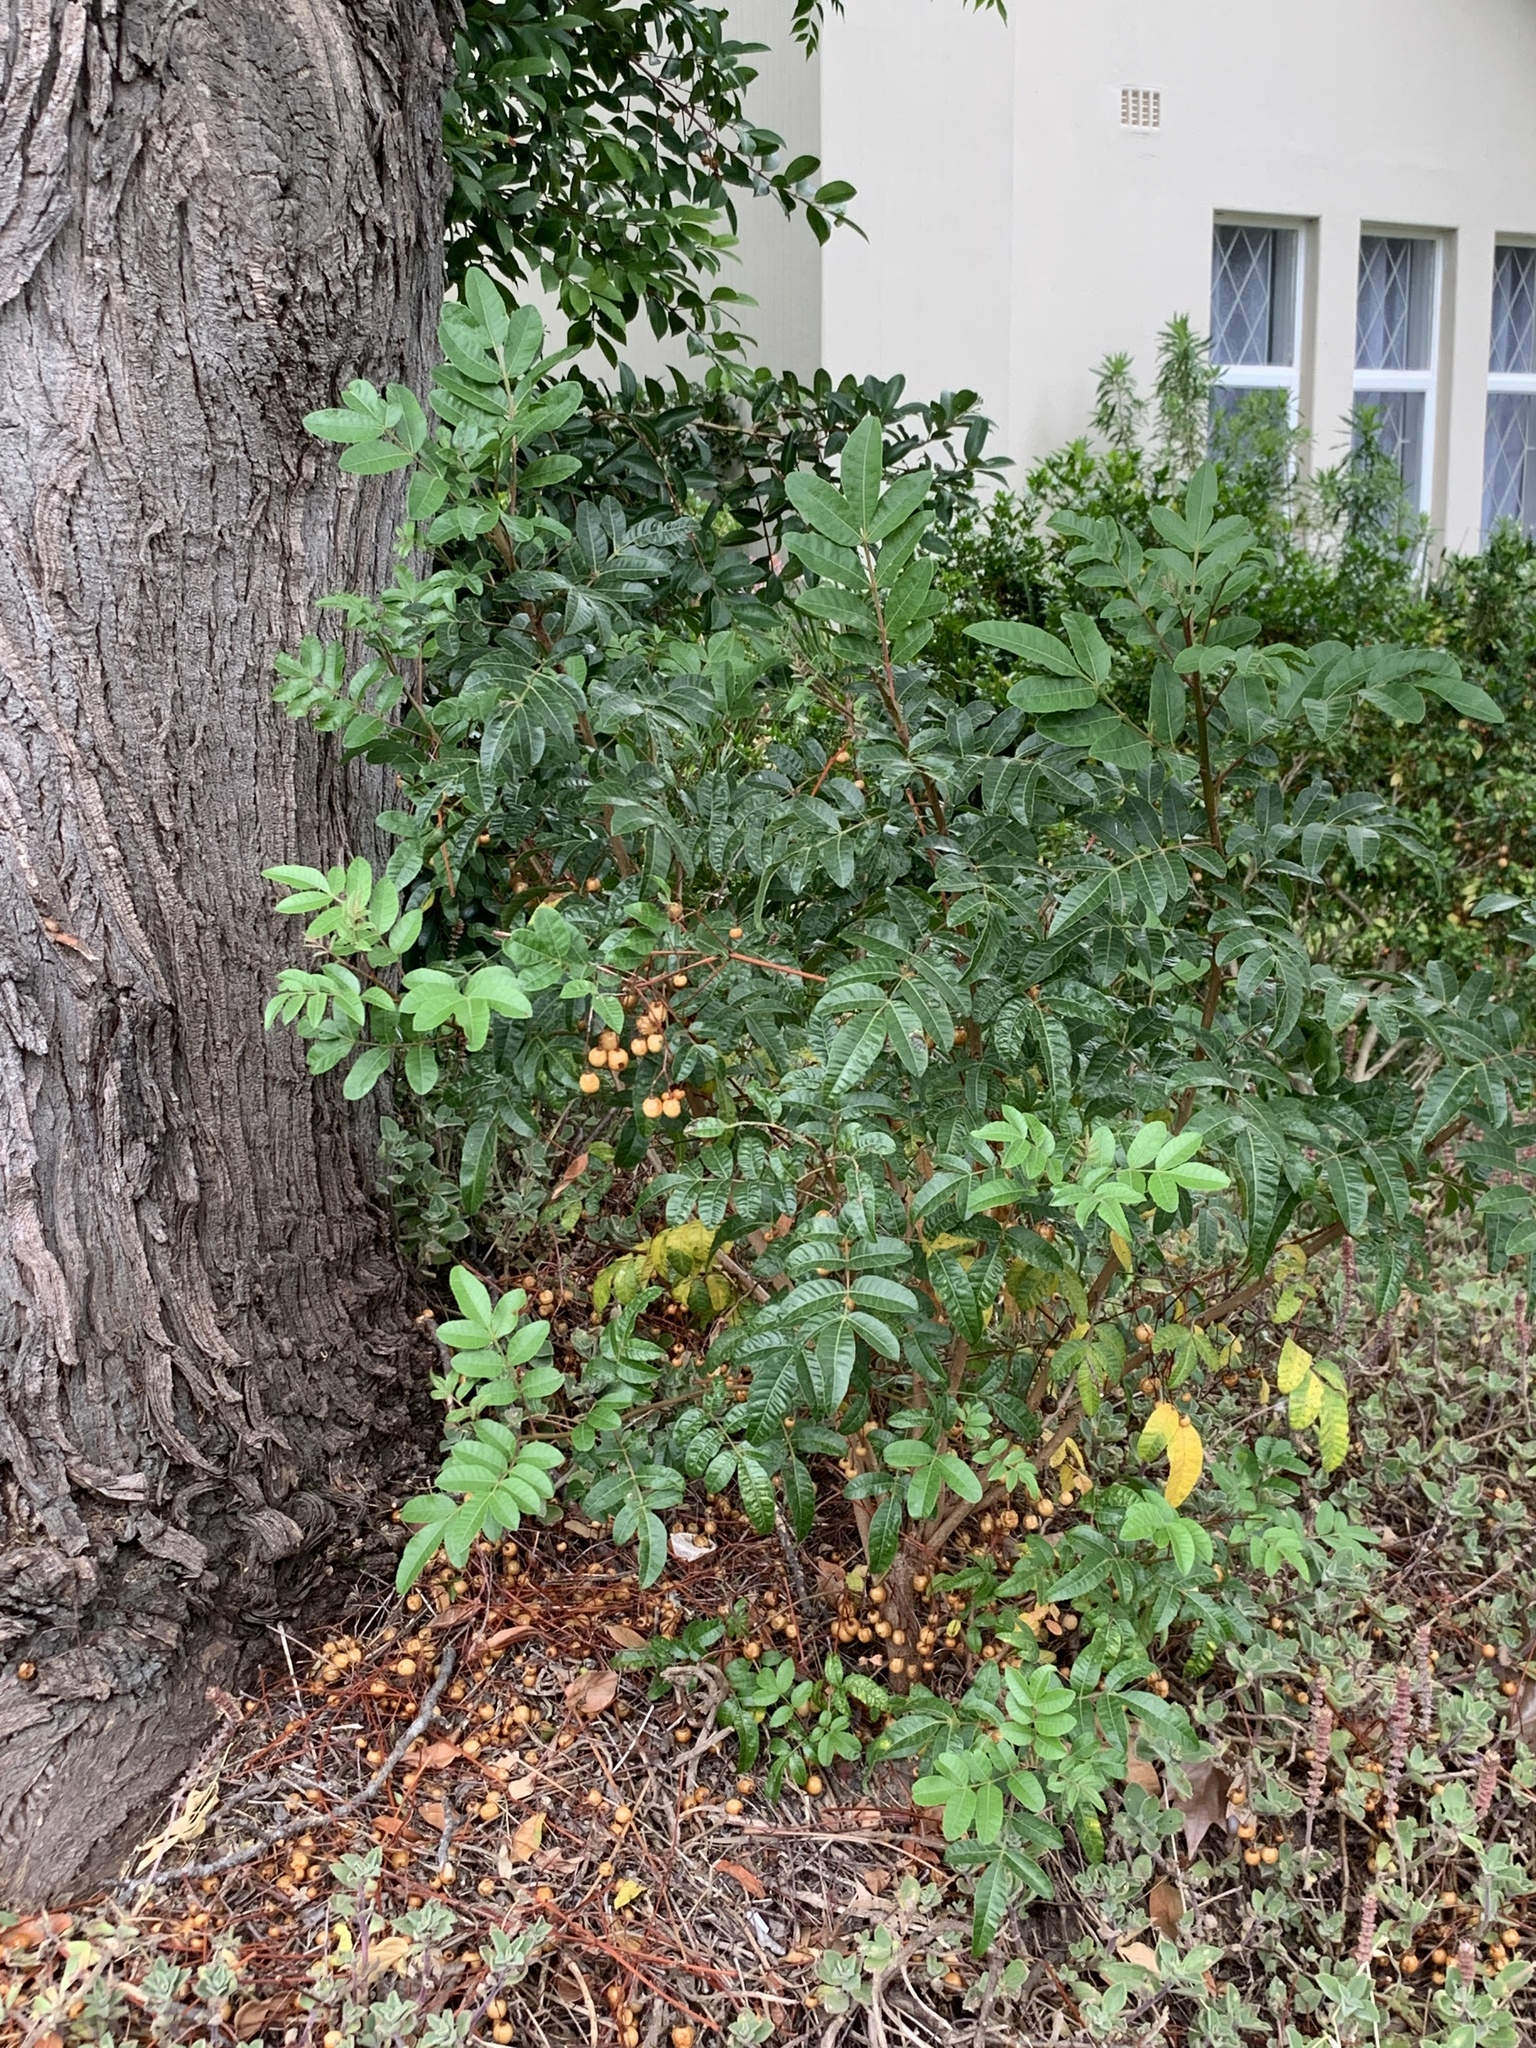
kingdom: Plantae
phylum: Tracheophyta
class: Magnoliopsida
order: Sapindales
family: Anacardiaceae
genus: Schinus
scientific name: Schinus terebinthifolia
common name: Brazilian peppertree
